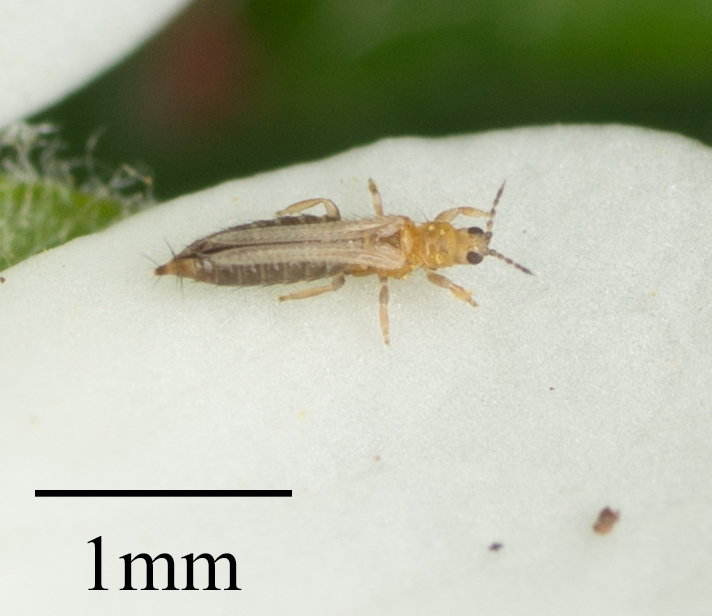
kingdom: Animalia
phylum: Arthropoda
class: Insecta
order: Thysanoptera
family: Thripidae
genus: Frankliniella
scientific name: Frankliniella occidentalis
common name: Western flower thrips
